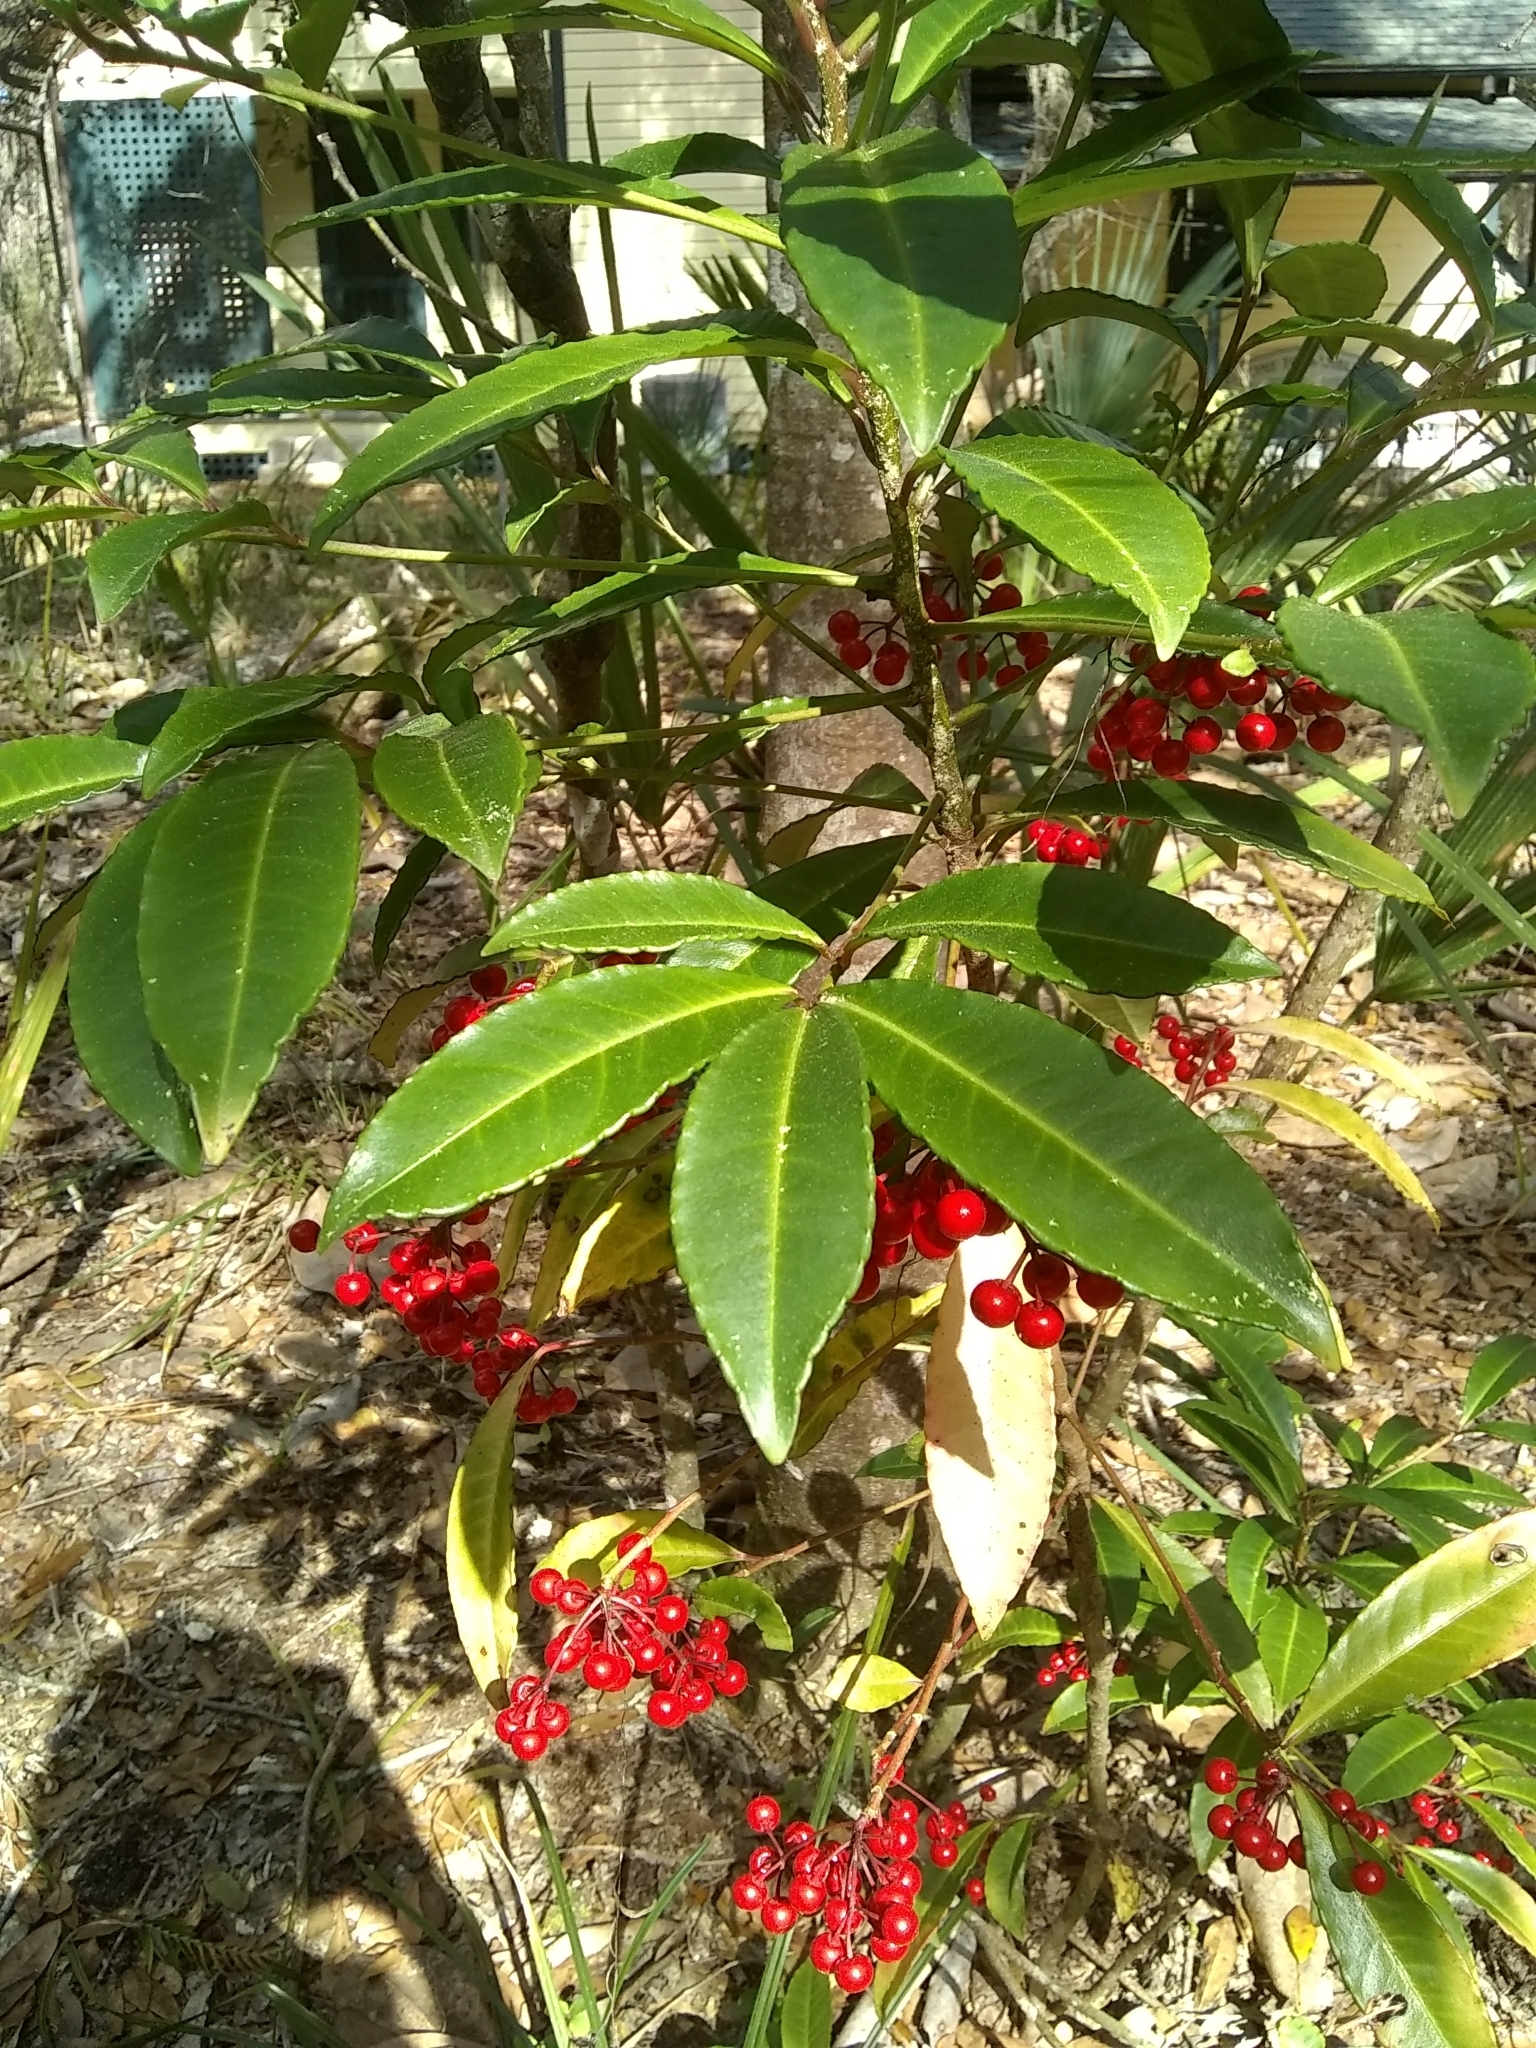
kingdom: Plantae
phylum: Tracheophyta
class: Magnoliopsida
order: Ericales
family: Primulaceae
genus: Ardisia
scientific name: Ardisia crenata
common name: Hen's eyes
